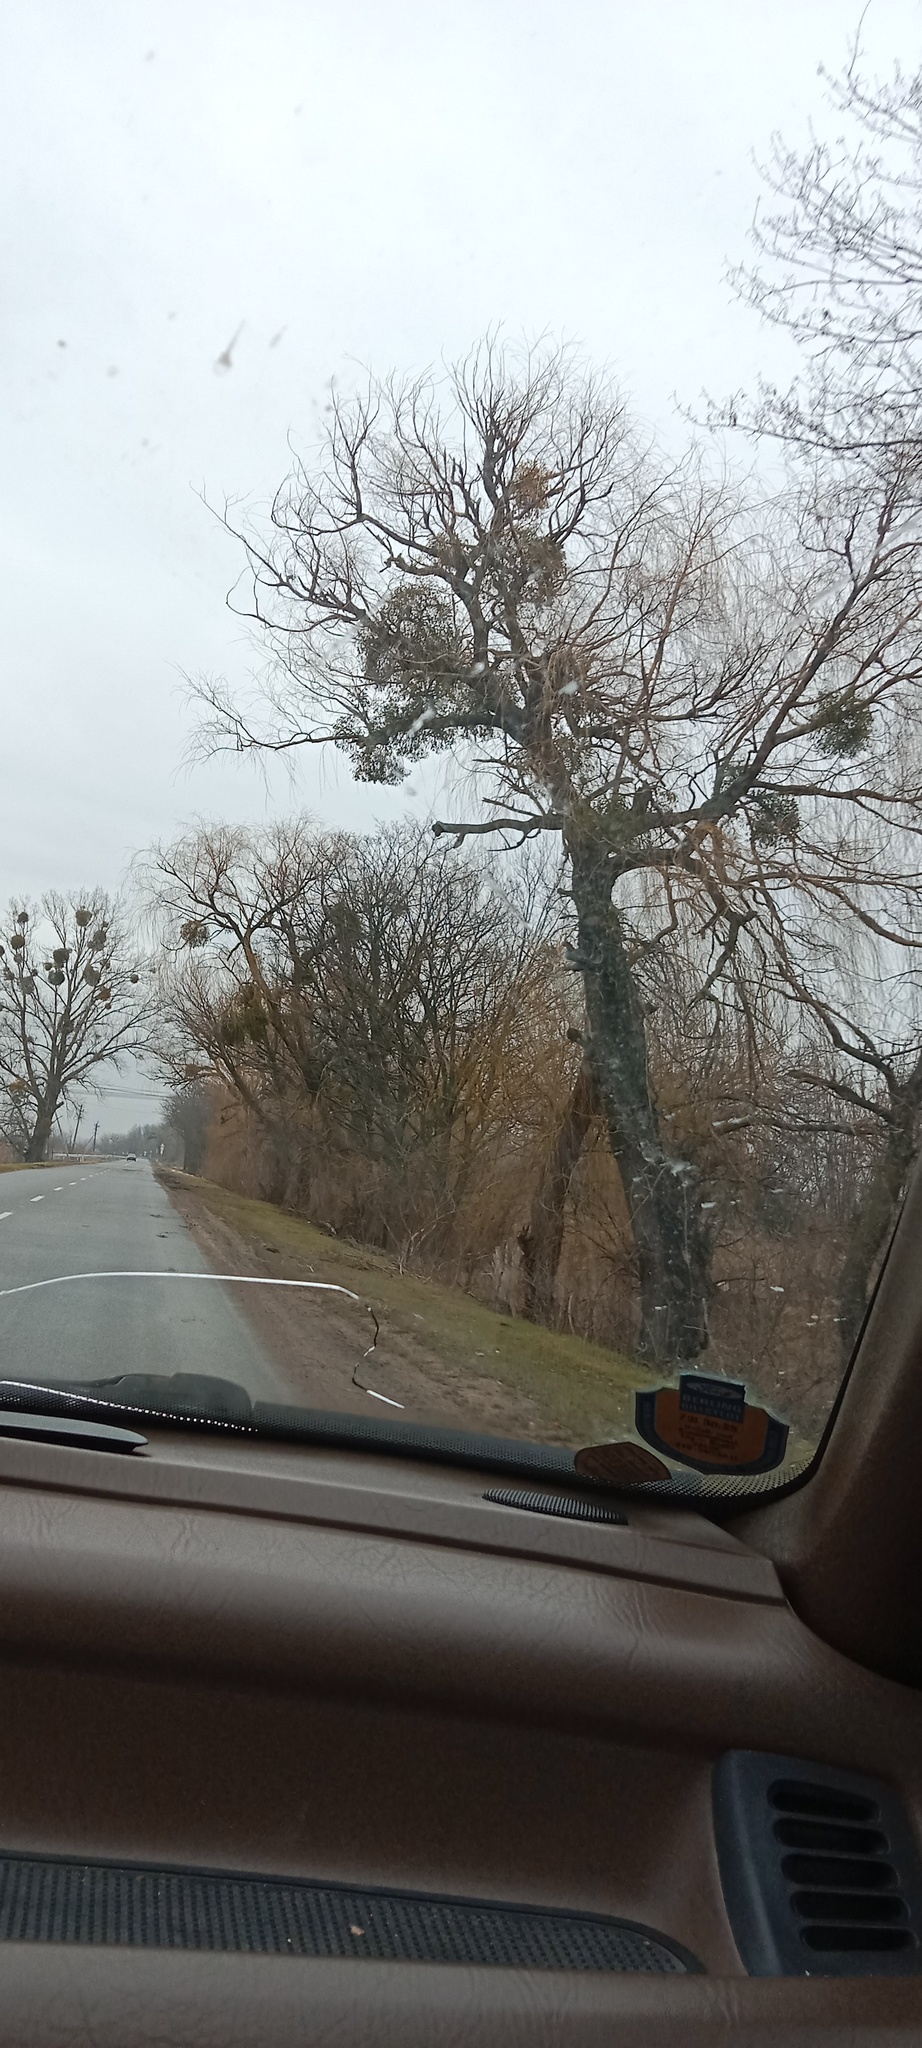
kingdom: Plantae
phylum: Tracheophyta
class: Magnoliopsida
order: Santalales
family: Viscaceae
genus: Viscum
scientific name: Viscum album
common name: Mistletoe
